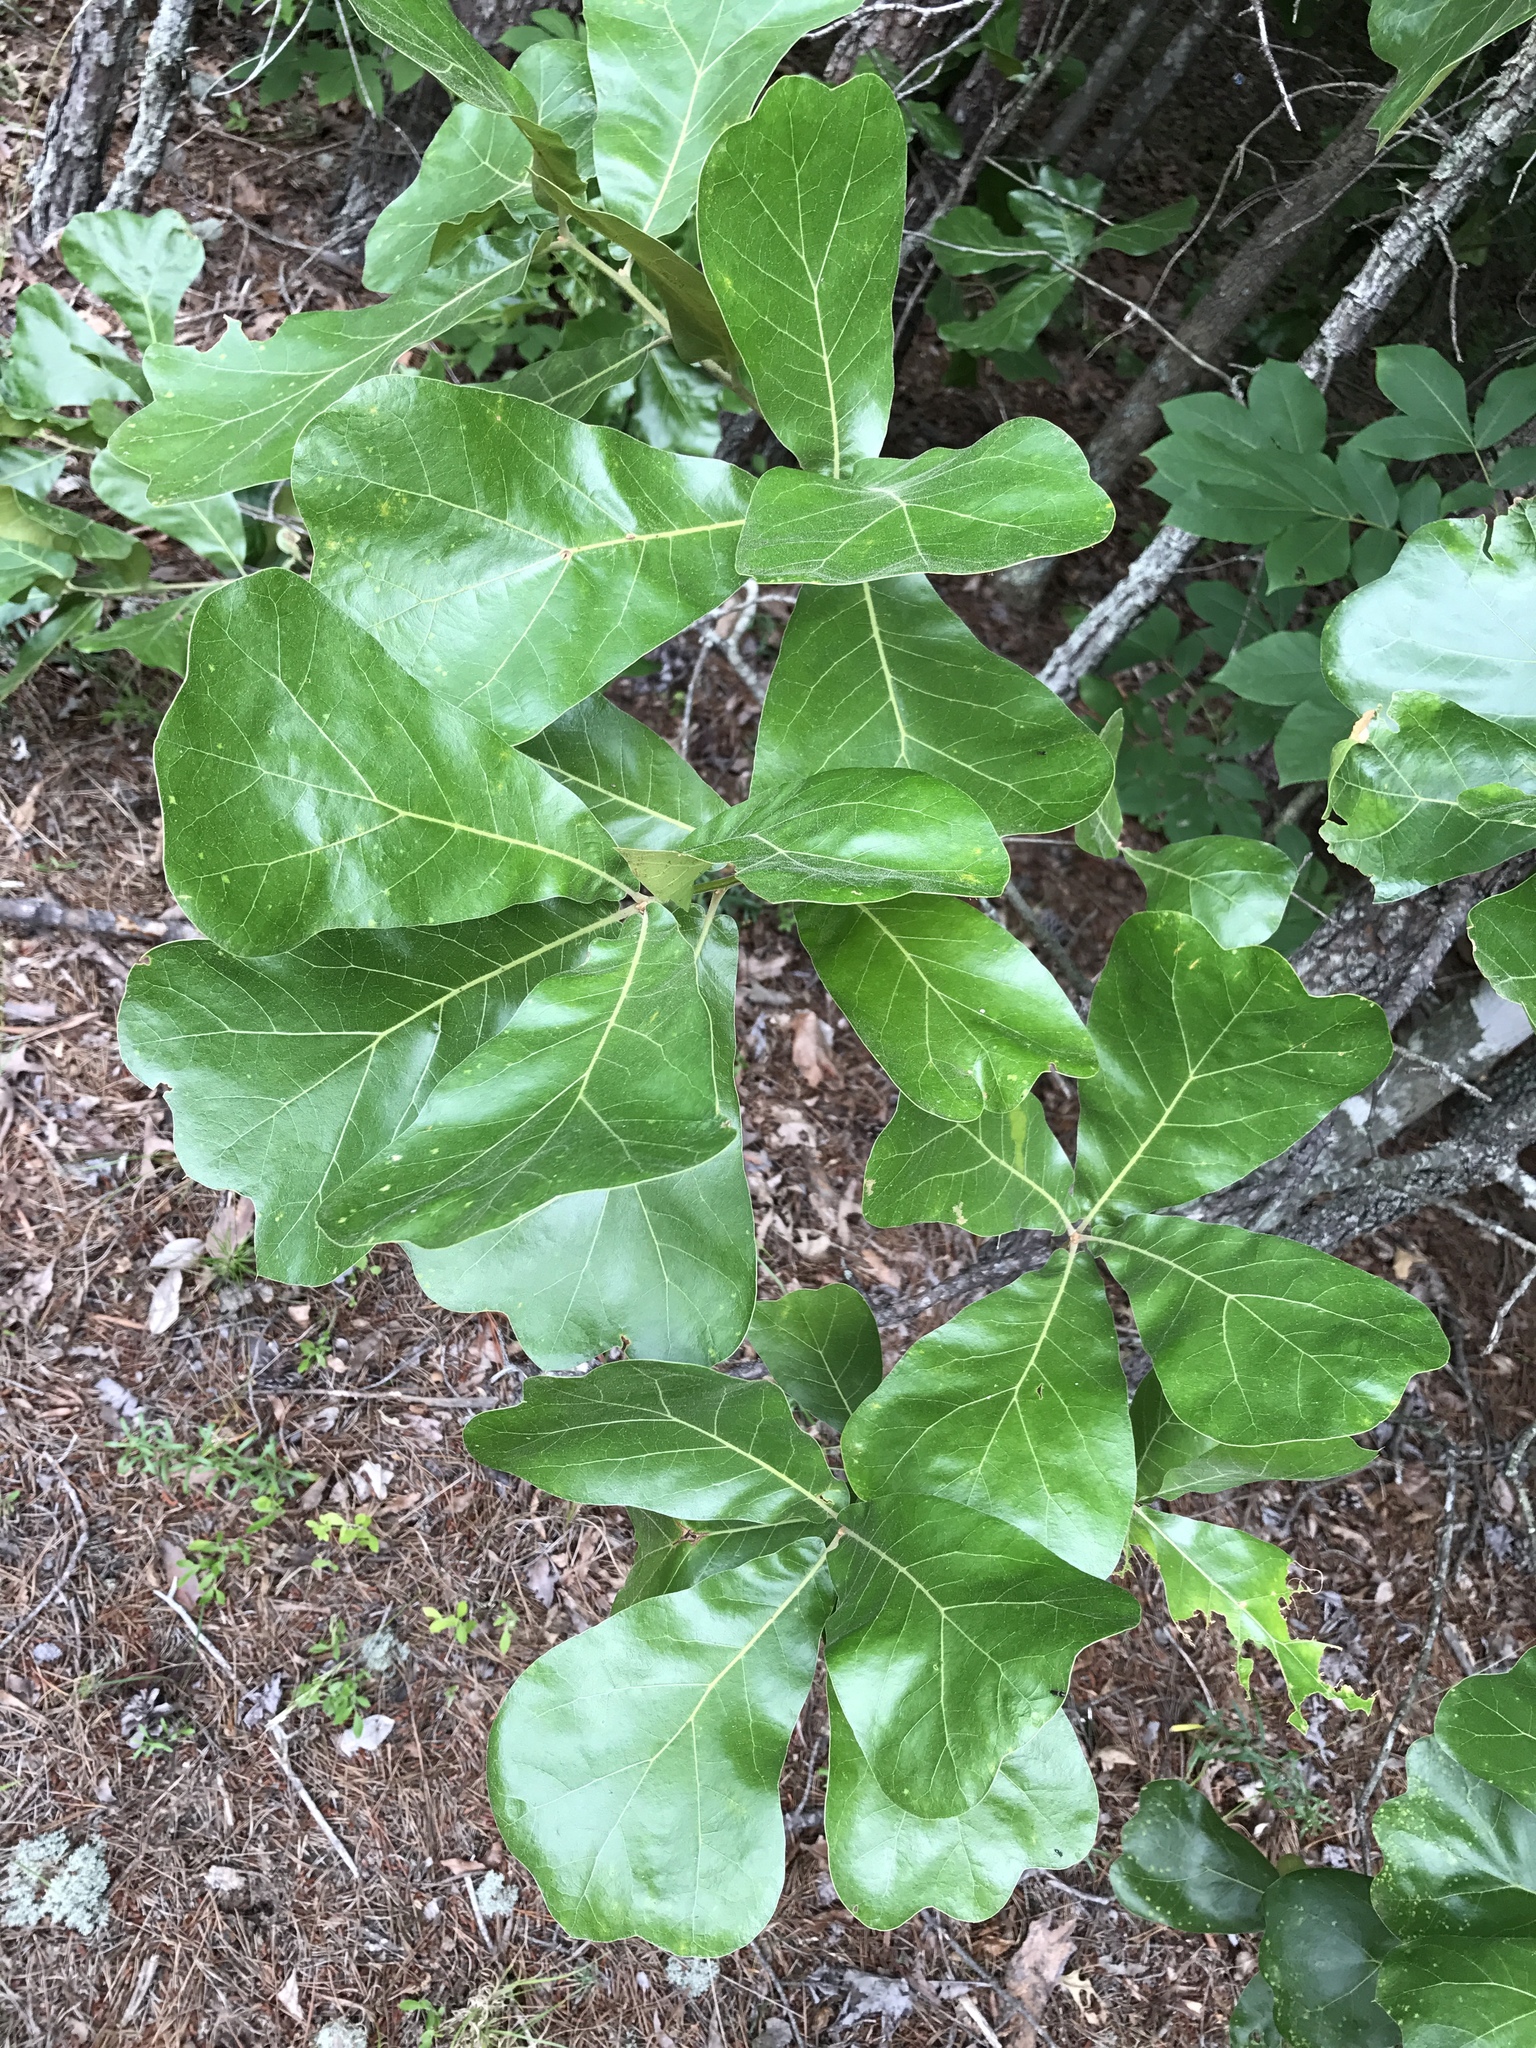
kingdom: Plantae
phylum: Tracheophyta
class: Magnoliopsida
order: Fagales
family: Fagaceae
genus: Quercus
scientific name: Quercus marilandica
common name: Blackjack oak
